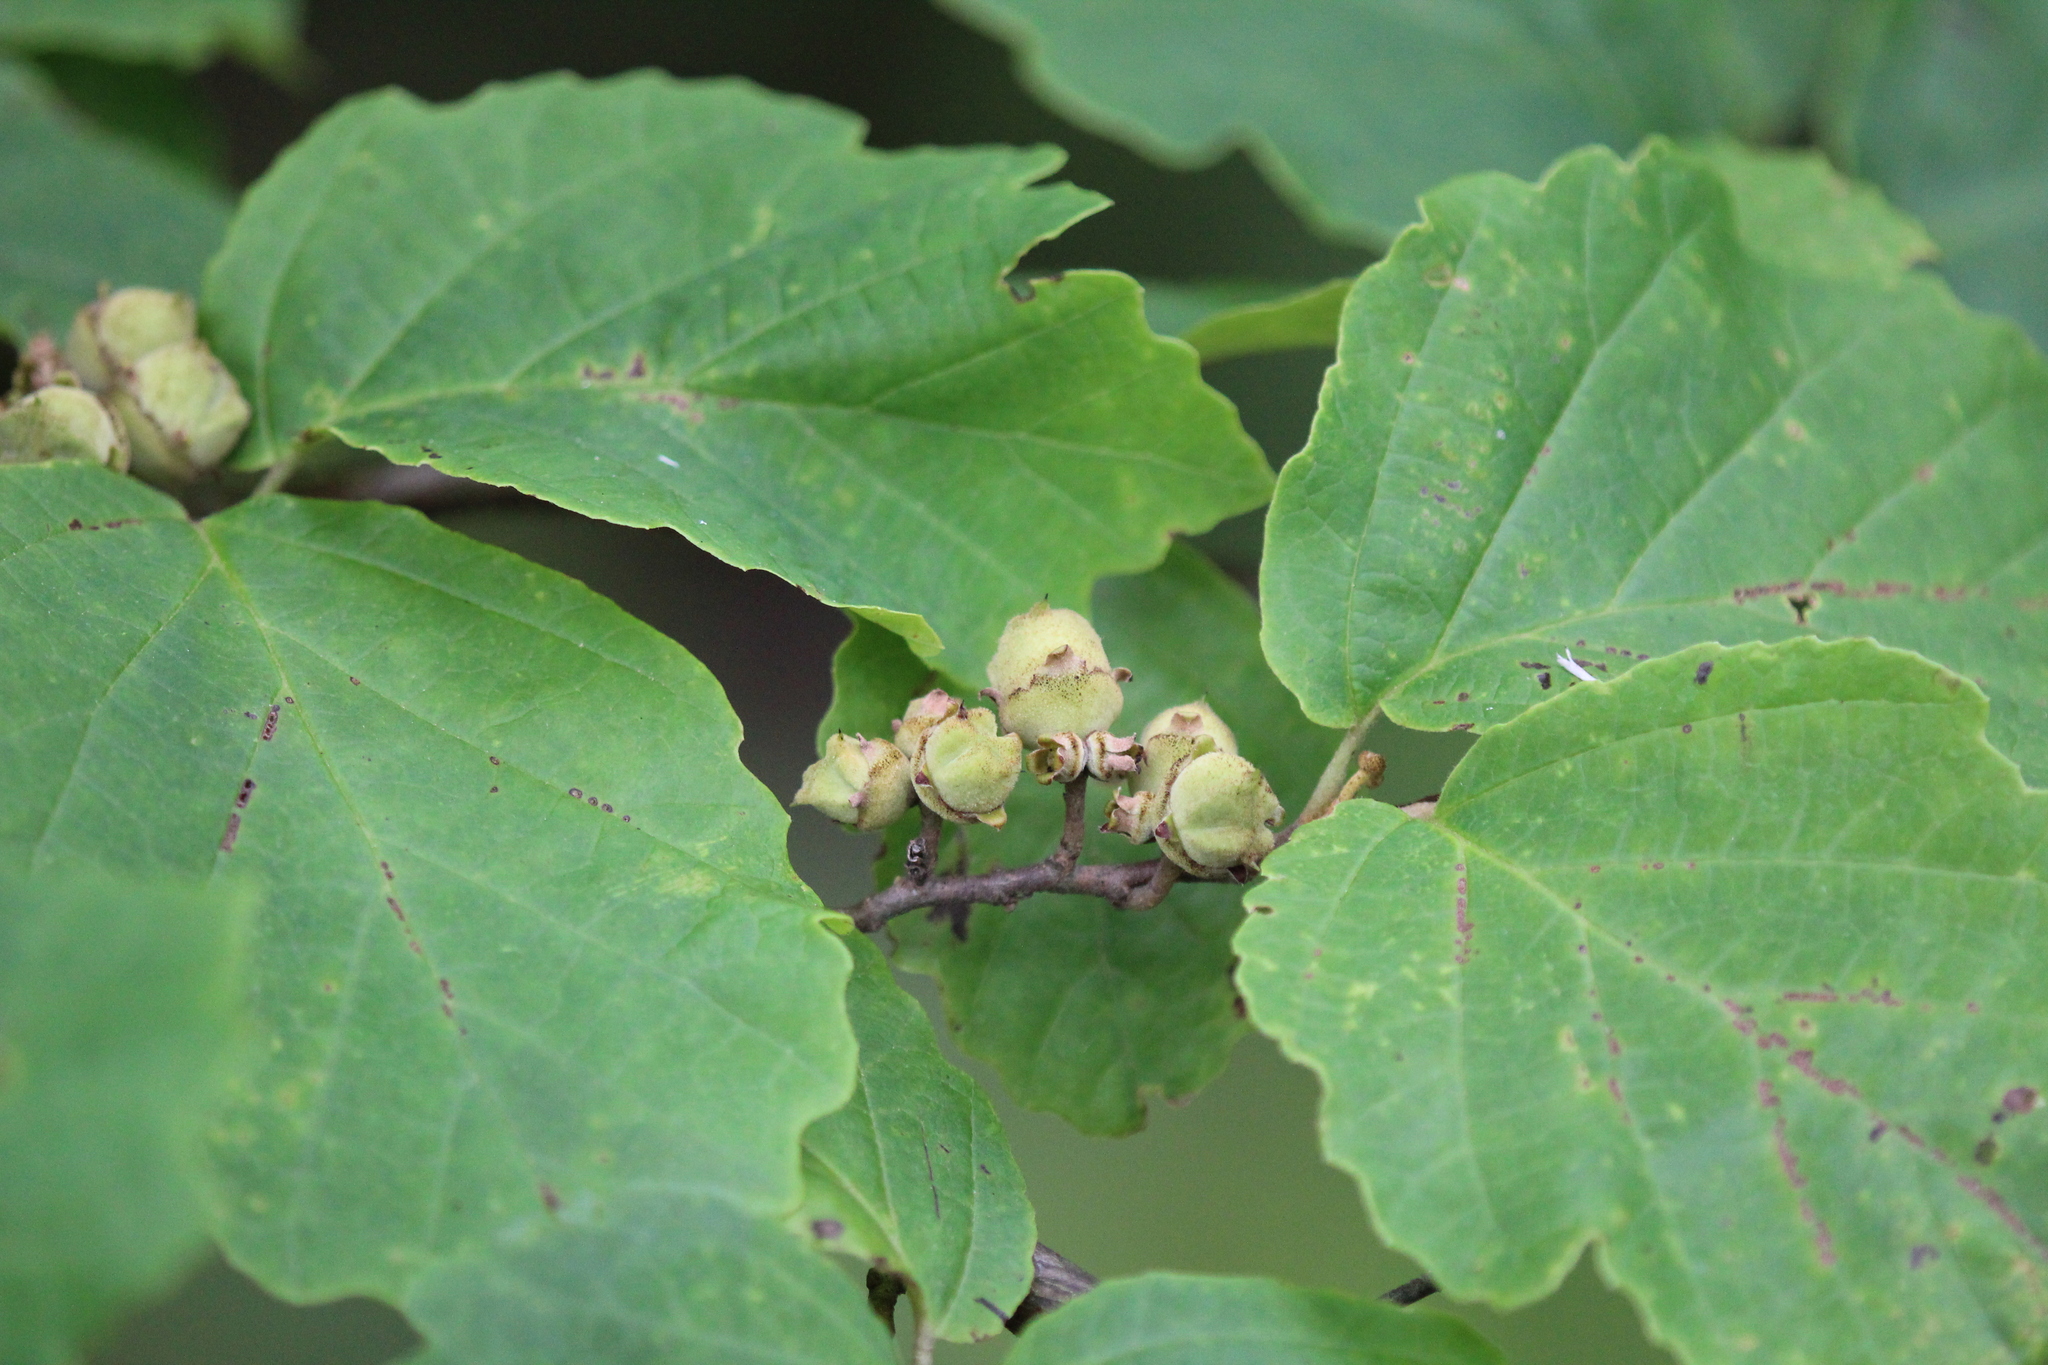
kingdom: Plantae
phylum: Tracheophyta
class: Magnoliopsida
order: Saxifragales
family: Hamamelidaceae
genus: Hamamelis
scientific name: Hamamelis virginiana
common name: Witch-hazel
